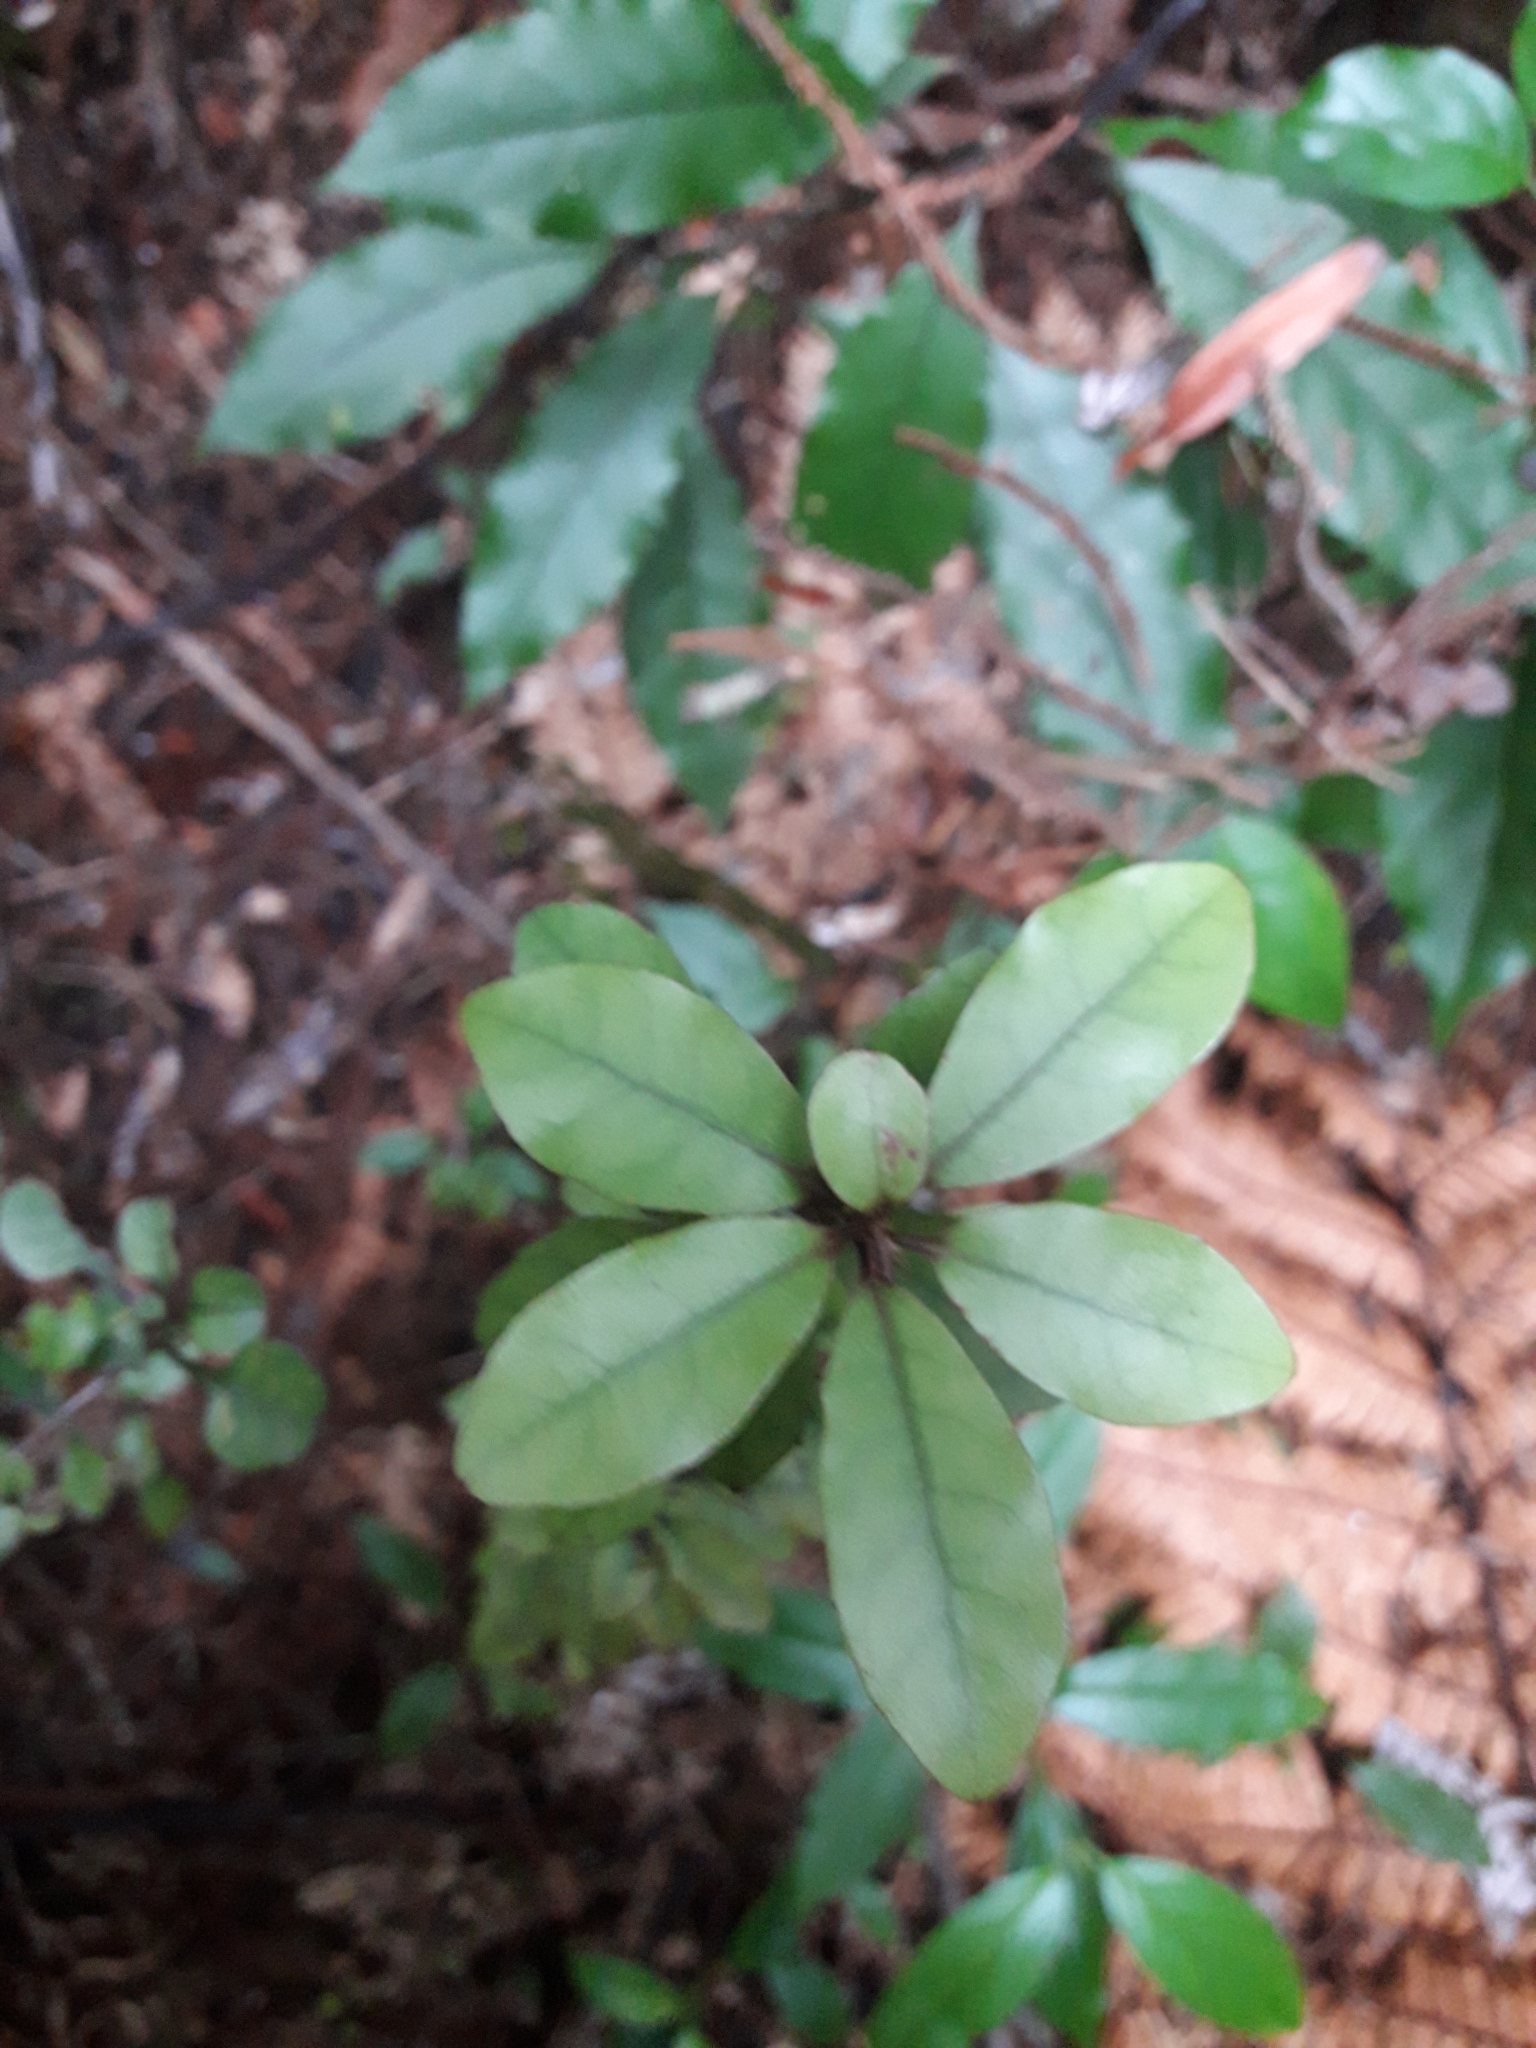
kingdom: Plantae
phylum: Tracheophyta
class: Magnoliopsida
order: Asterales
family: Alseuosmiaceae
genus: Alseuosmia
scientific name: Alseuosmia banksii
